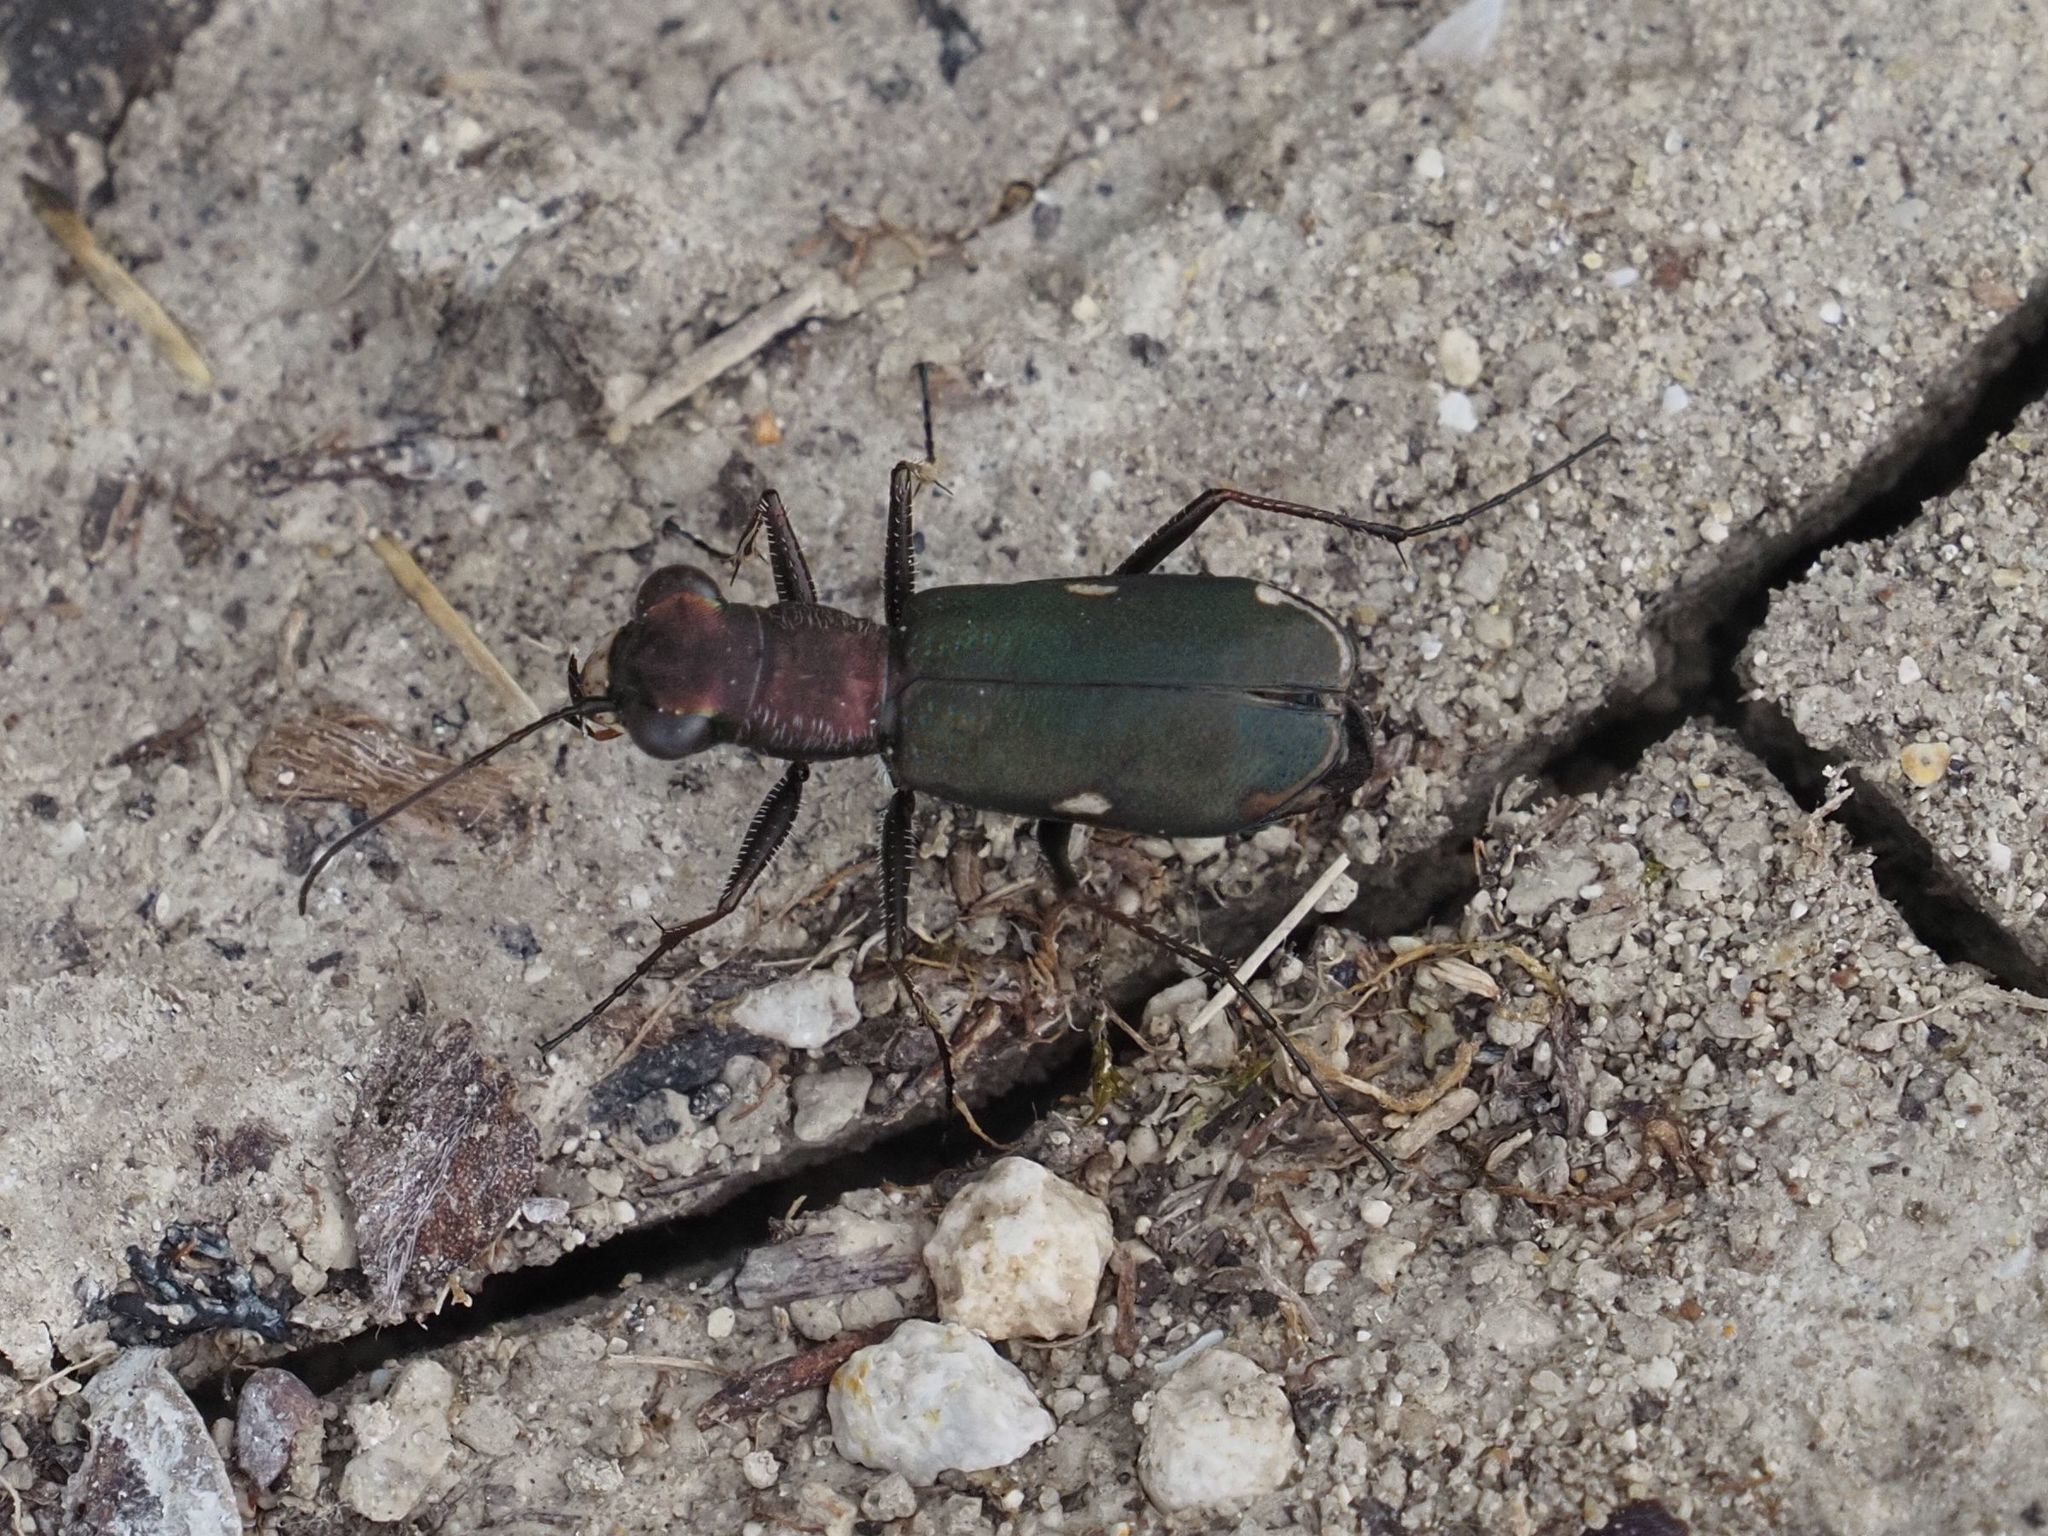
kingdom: Animalia
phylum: Arthropoda
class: Insecta
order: Coleoptera
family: Carabidae
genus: Cylindera
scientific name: Cylindera germanica
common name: Cliff tiger beetle
